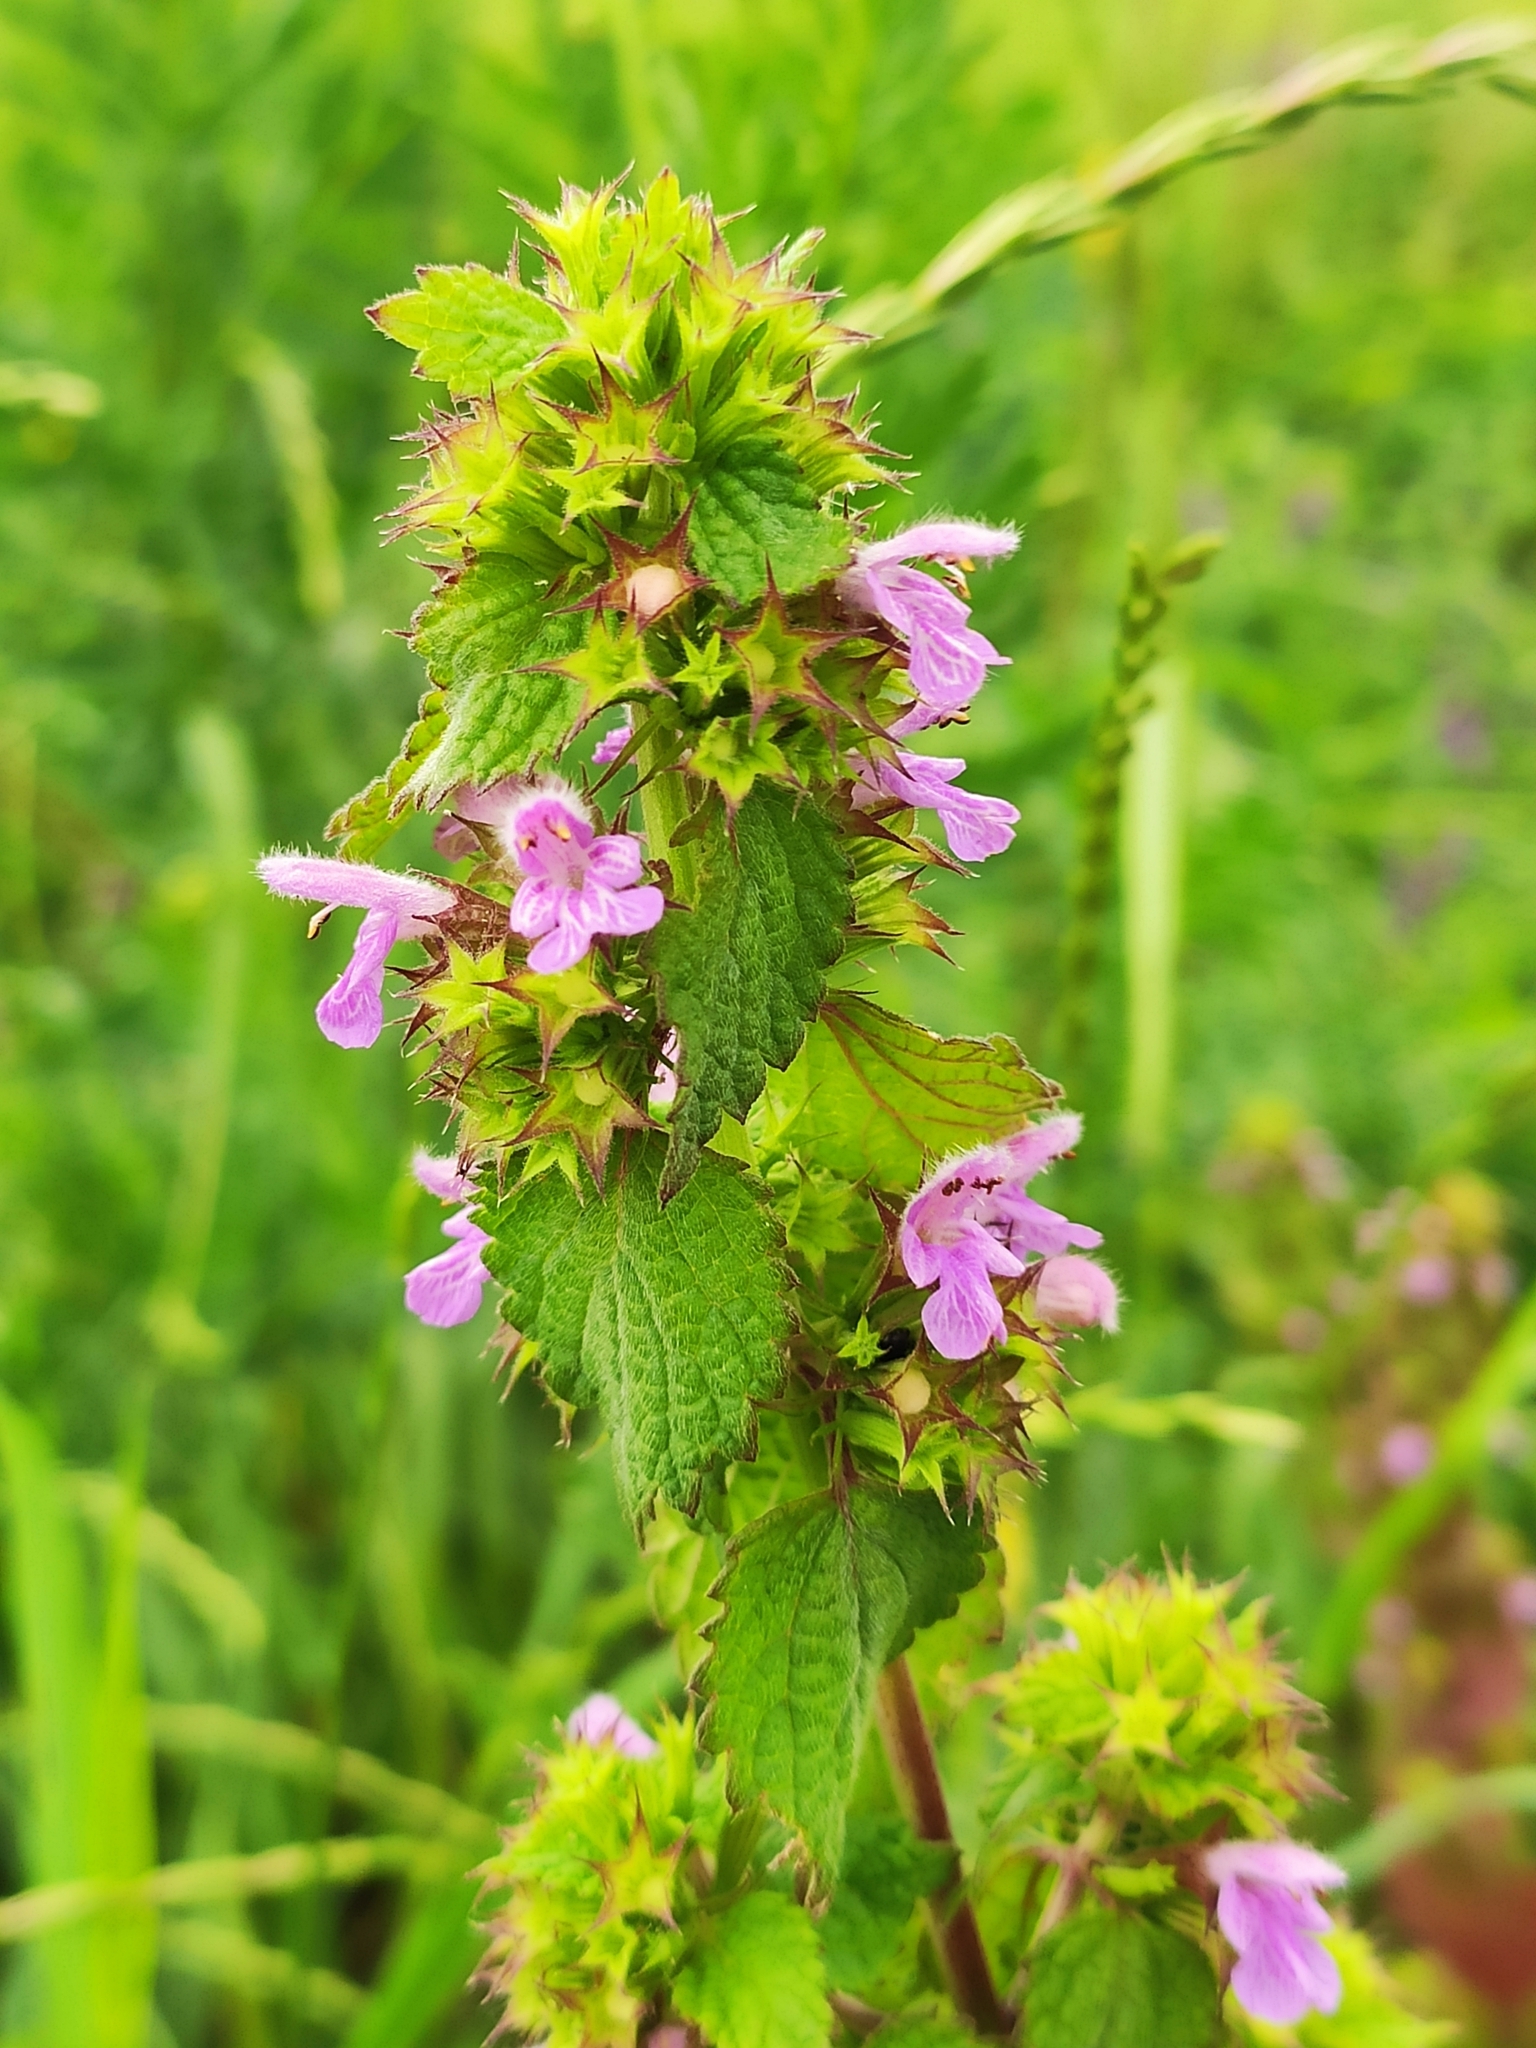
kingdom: Plantae
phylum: Tracheophyta
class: Magnoliopsida
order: Lamiales
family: Lamiaceae
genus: Ballota
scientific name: Ballota nigra
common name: Black horehound
